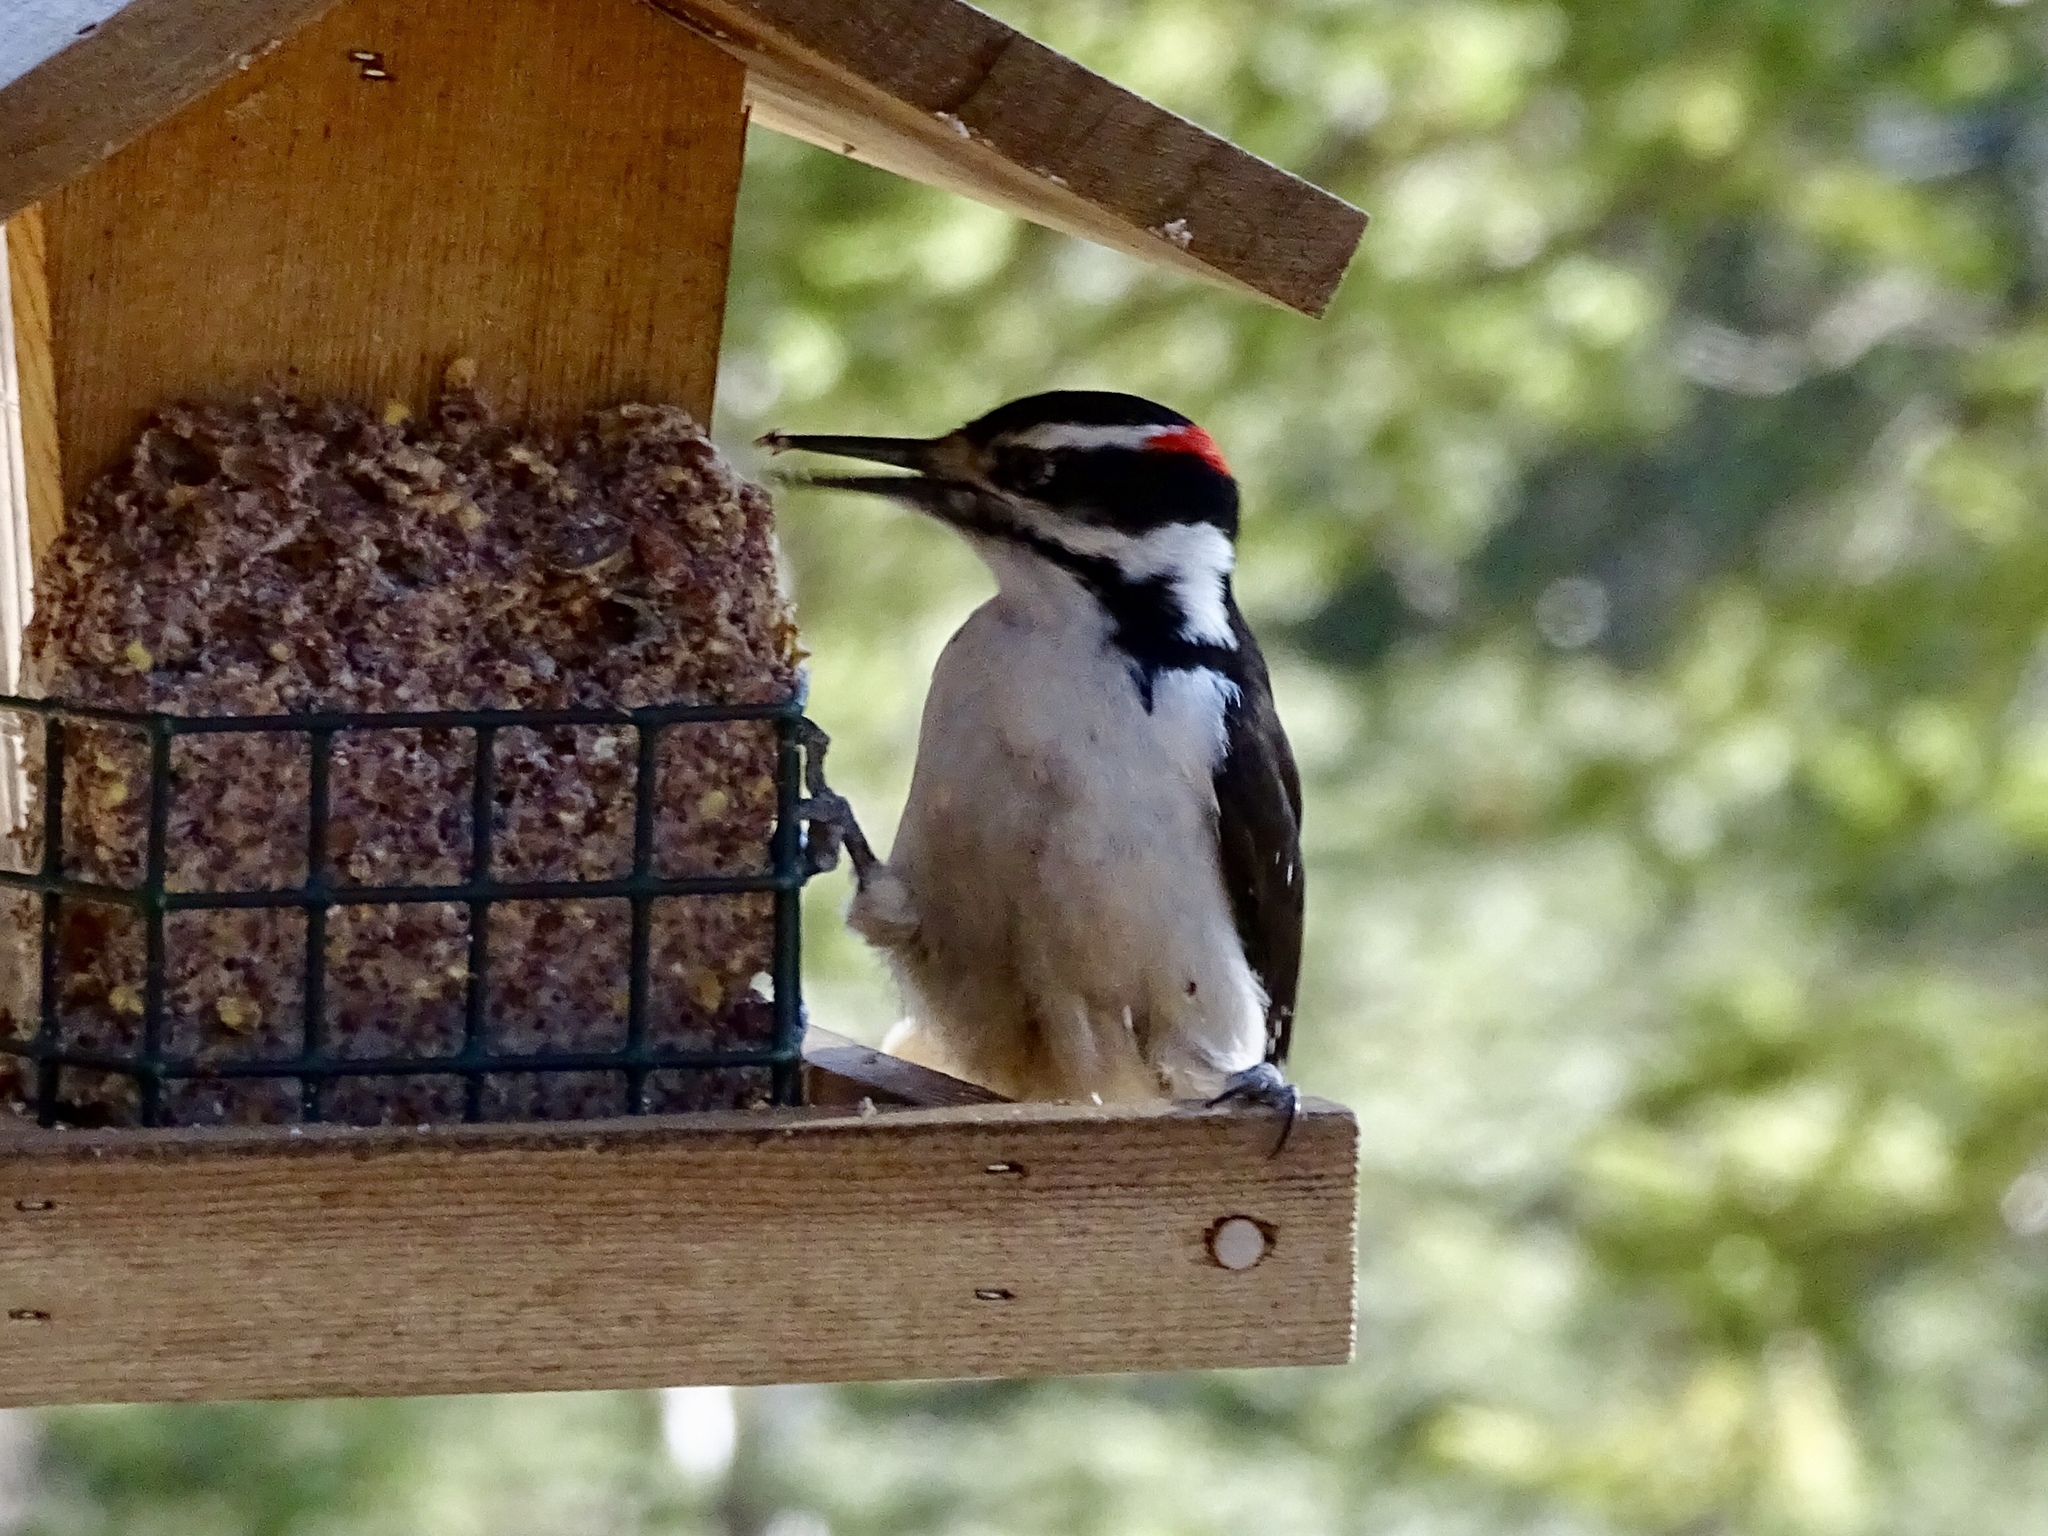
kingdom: Animalia
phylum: Chordata
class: Aves
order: Piciformes
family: Picidae
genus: Leuconotopicus
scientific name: Leuconotopicus villosus
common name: Hairy woodpecker
